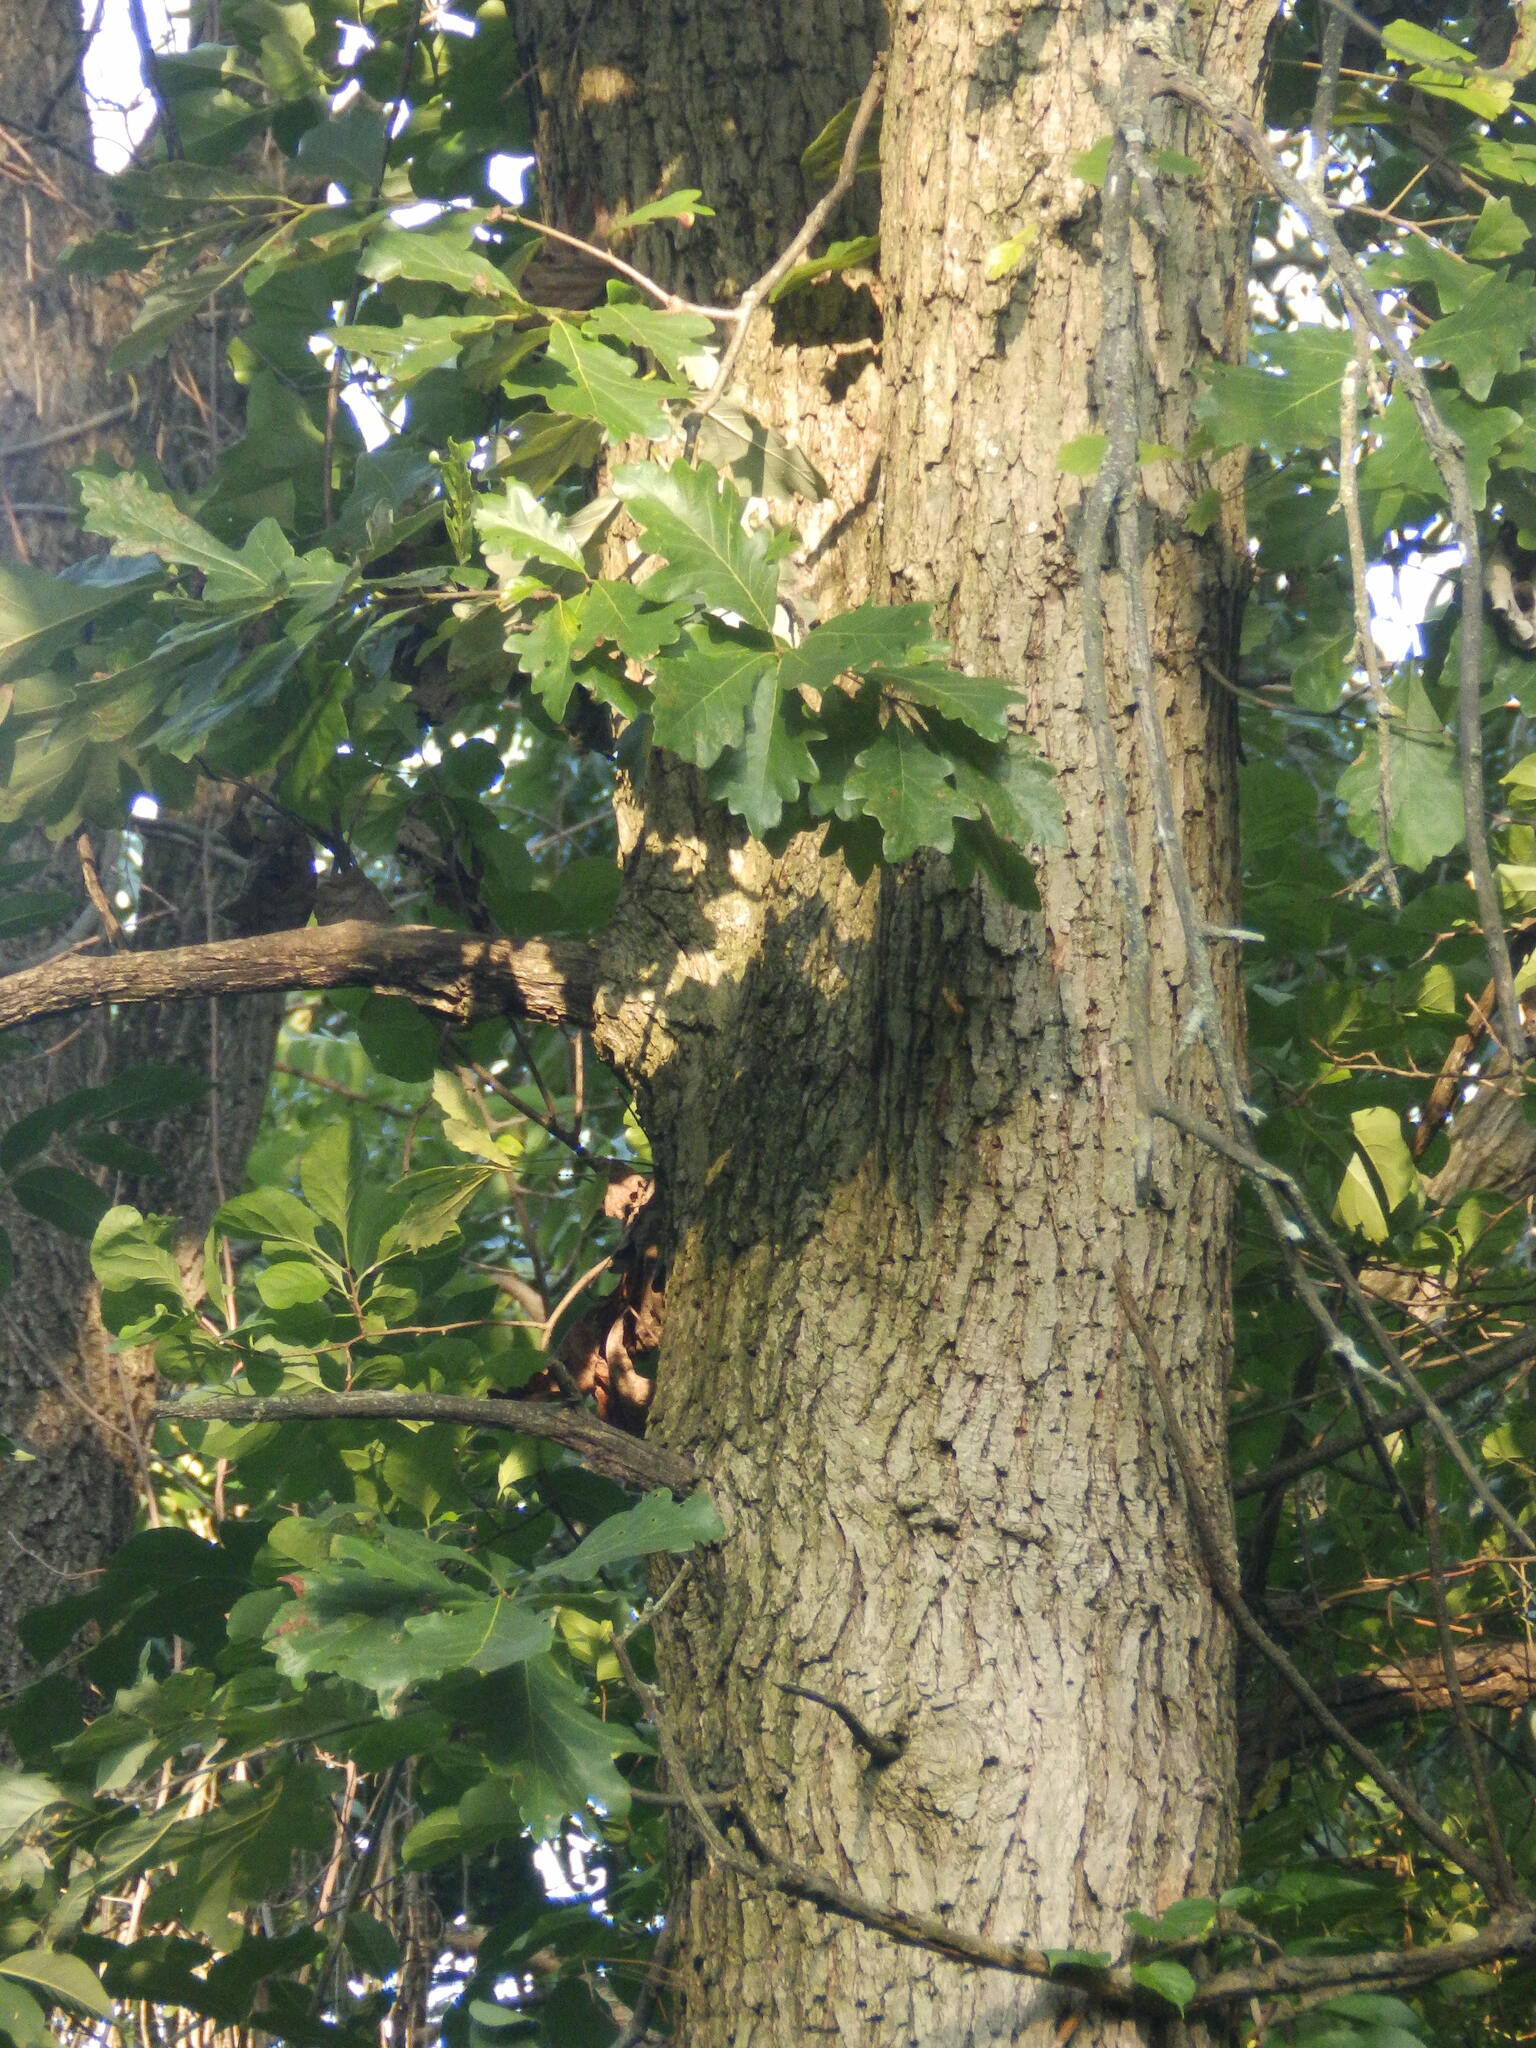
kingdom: Plantae
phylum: Tracheophyta
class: Magnoliopsida
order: Fagales
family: Fagaceae
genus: Quercus
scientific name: Quercus bicolor
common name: Swamp white oak
